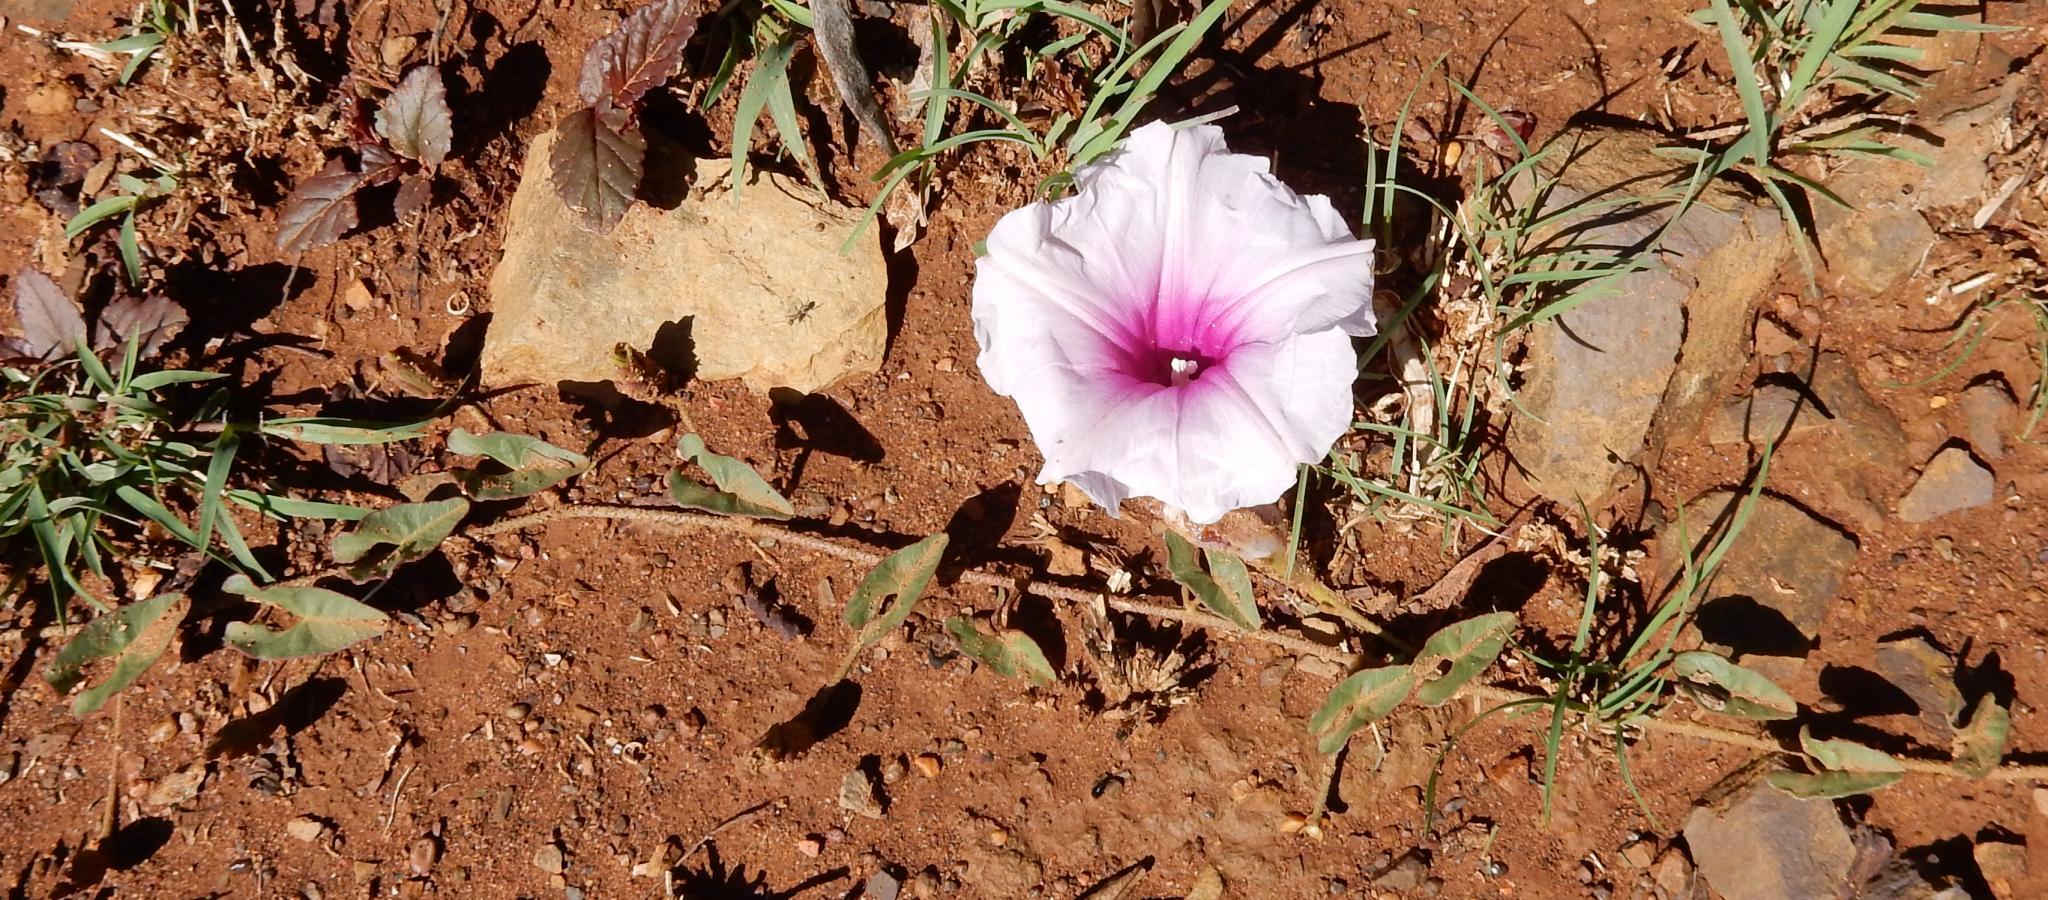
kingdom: Plantae
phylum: Tracheophyta
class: Magnoliopsida
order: Solanales
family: Convolvulaceae
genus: Ipomoea
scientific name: Ipomoea bathycolpos
